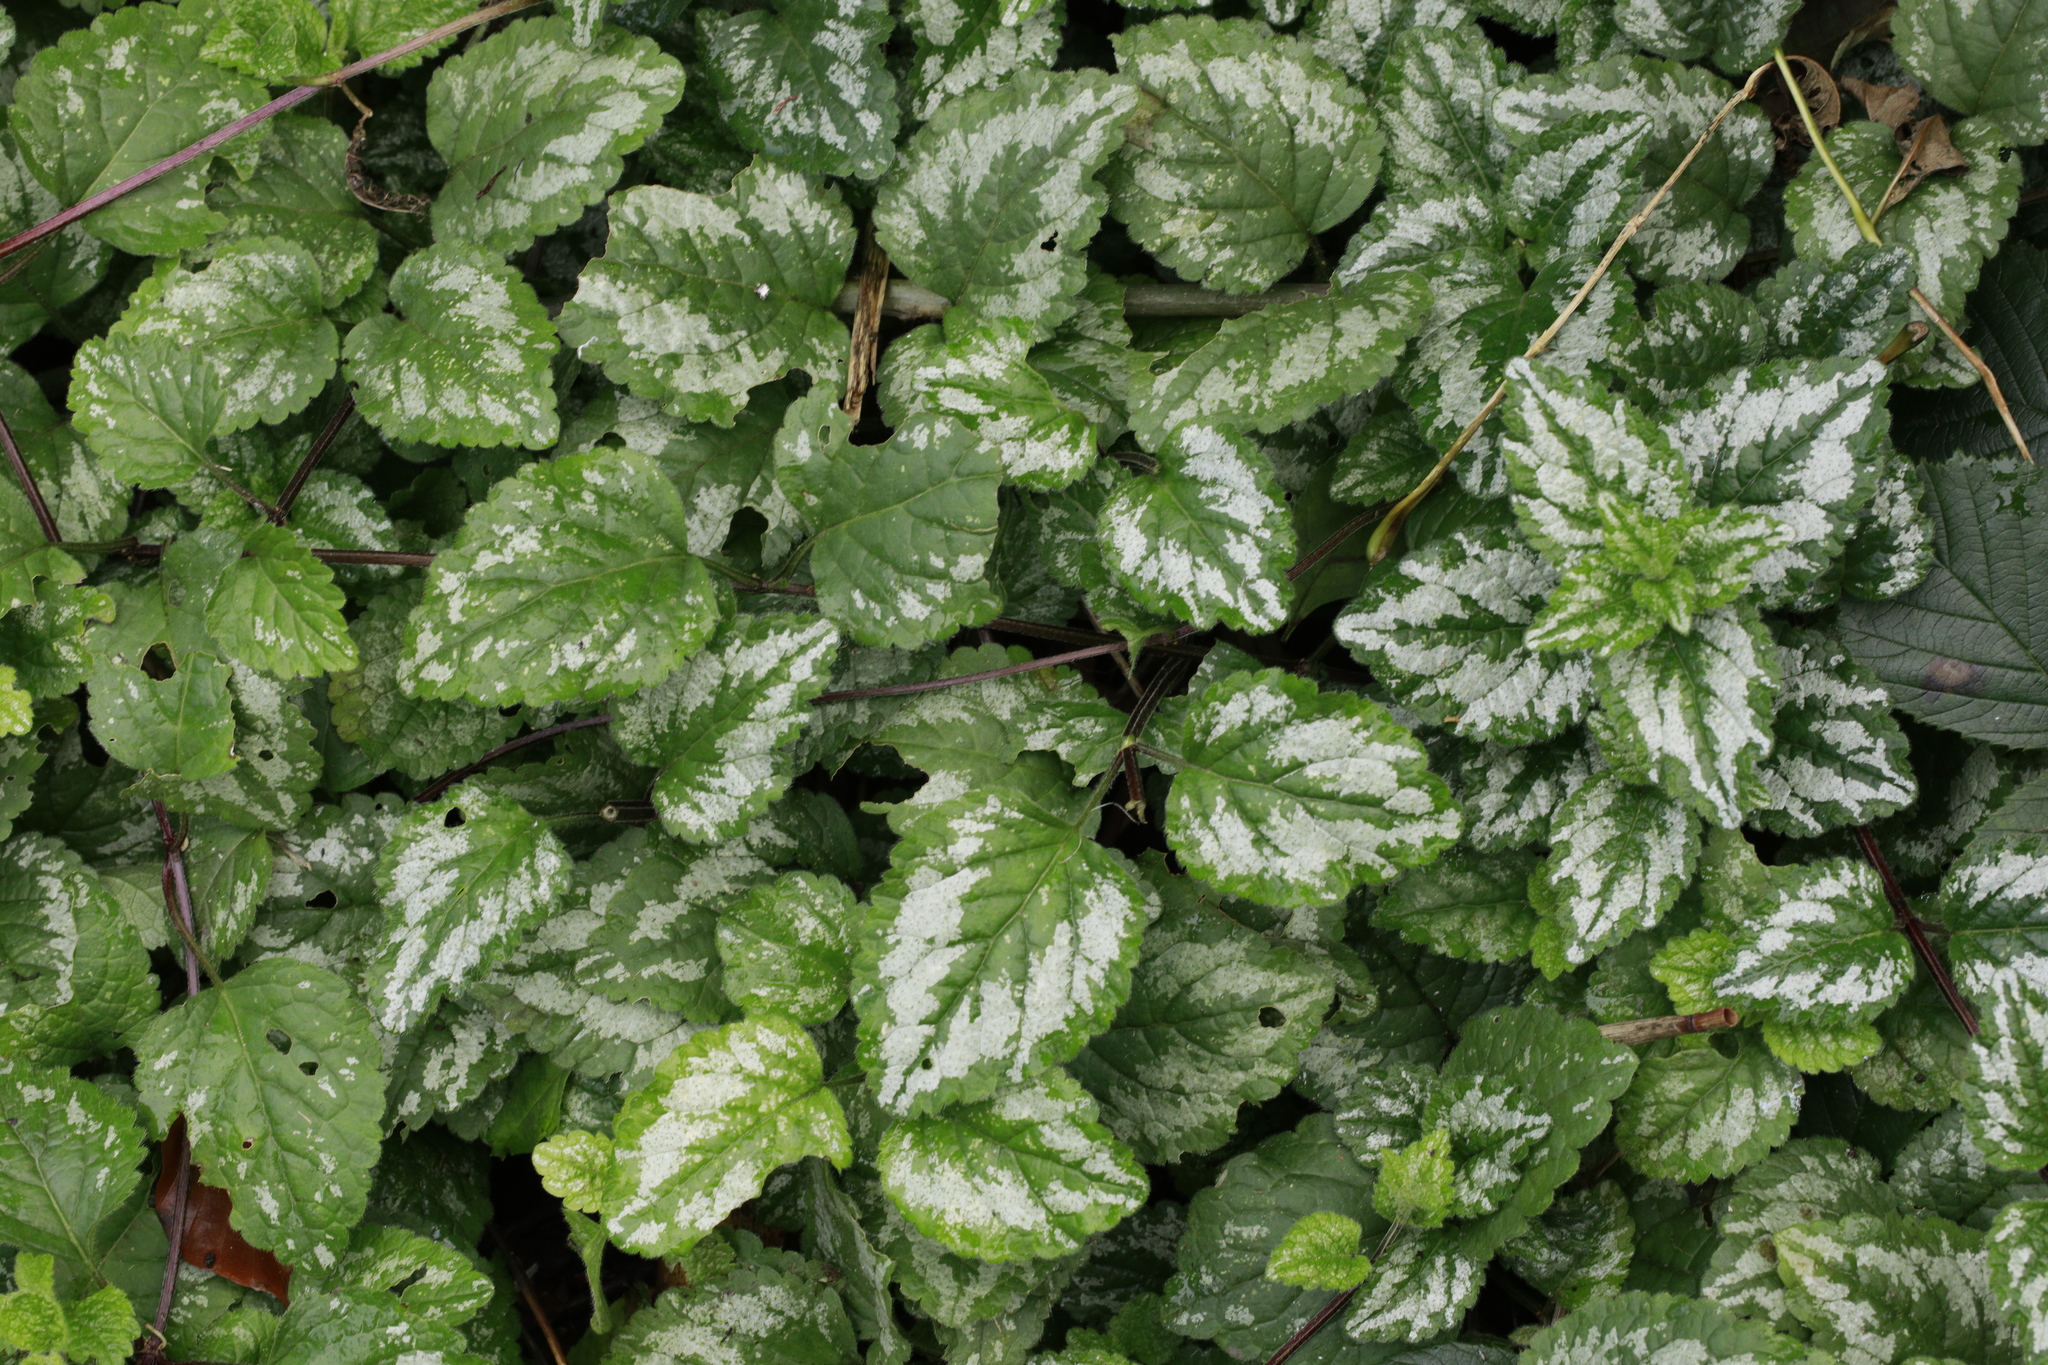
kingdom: Plantae
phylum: Tracheophyta
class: Magnoliopsida
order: Lamiales
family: Lamiaceae
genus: Lamium
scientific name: Lamium galeobdolon
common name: Yellow archangel
